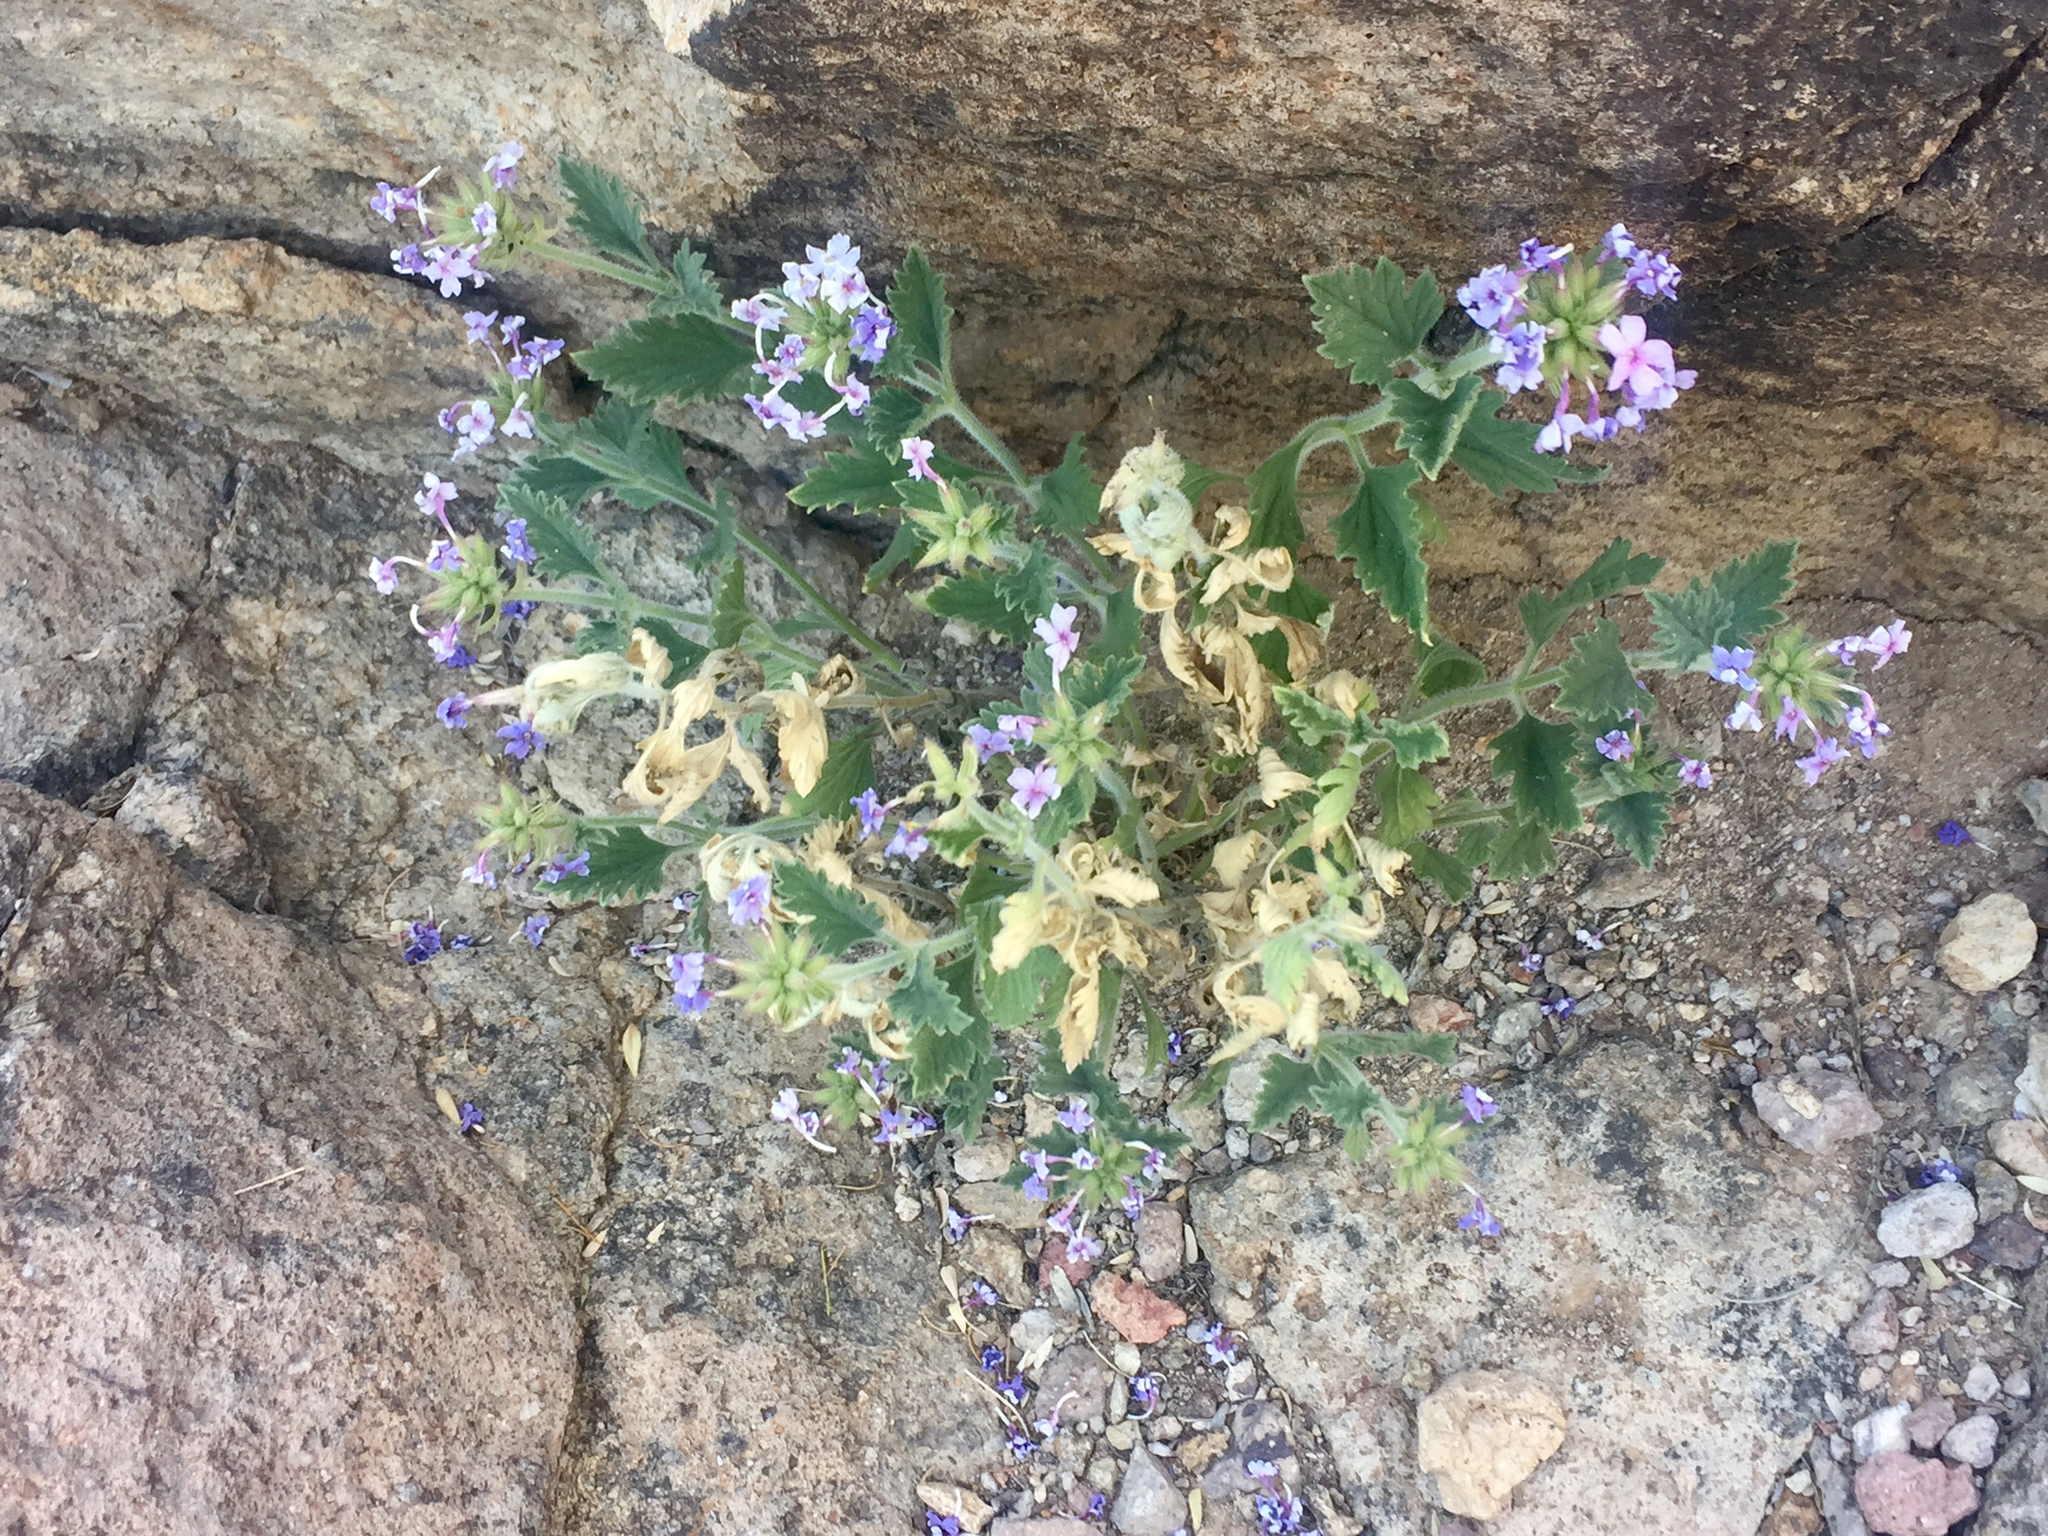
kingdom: Plantae
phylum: Tracheophyta
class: Magnoliopsida
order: Lamiales
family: Verbenaceae
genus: Verbena
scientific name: Verbena gooddingii
